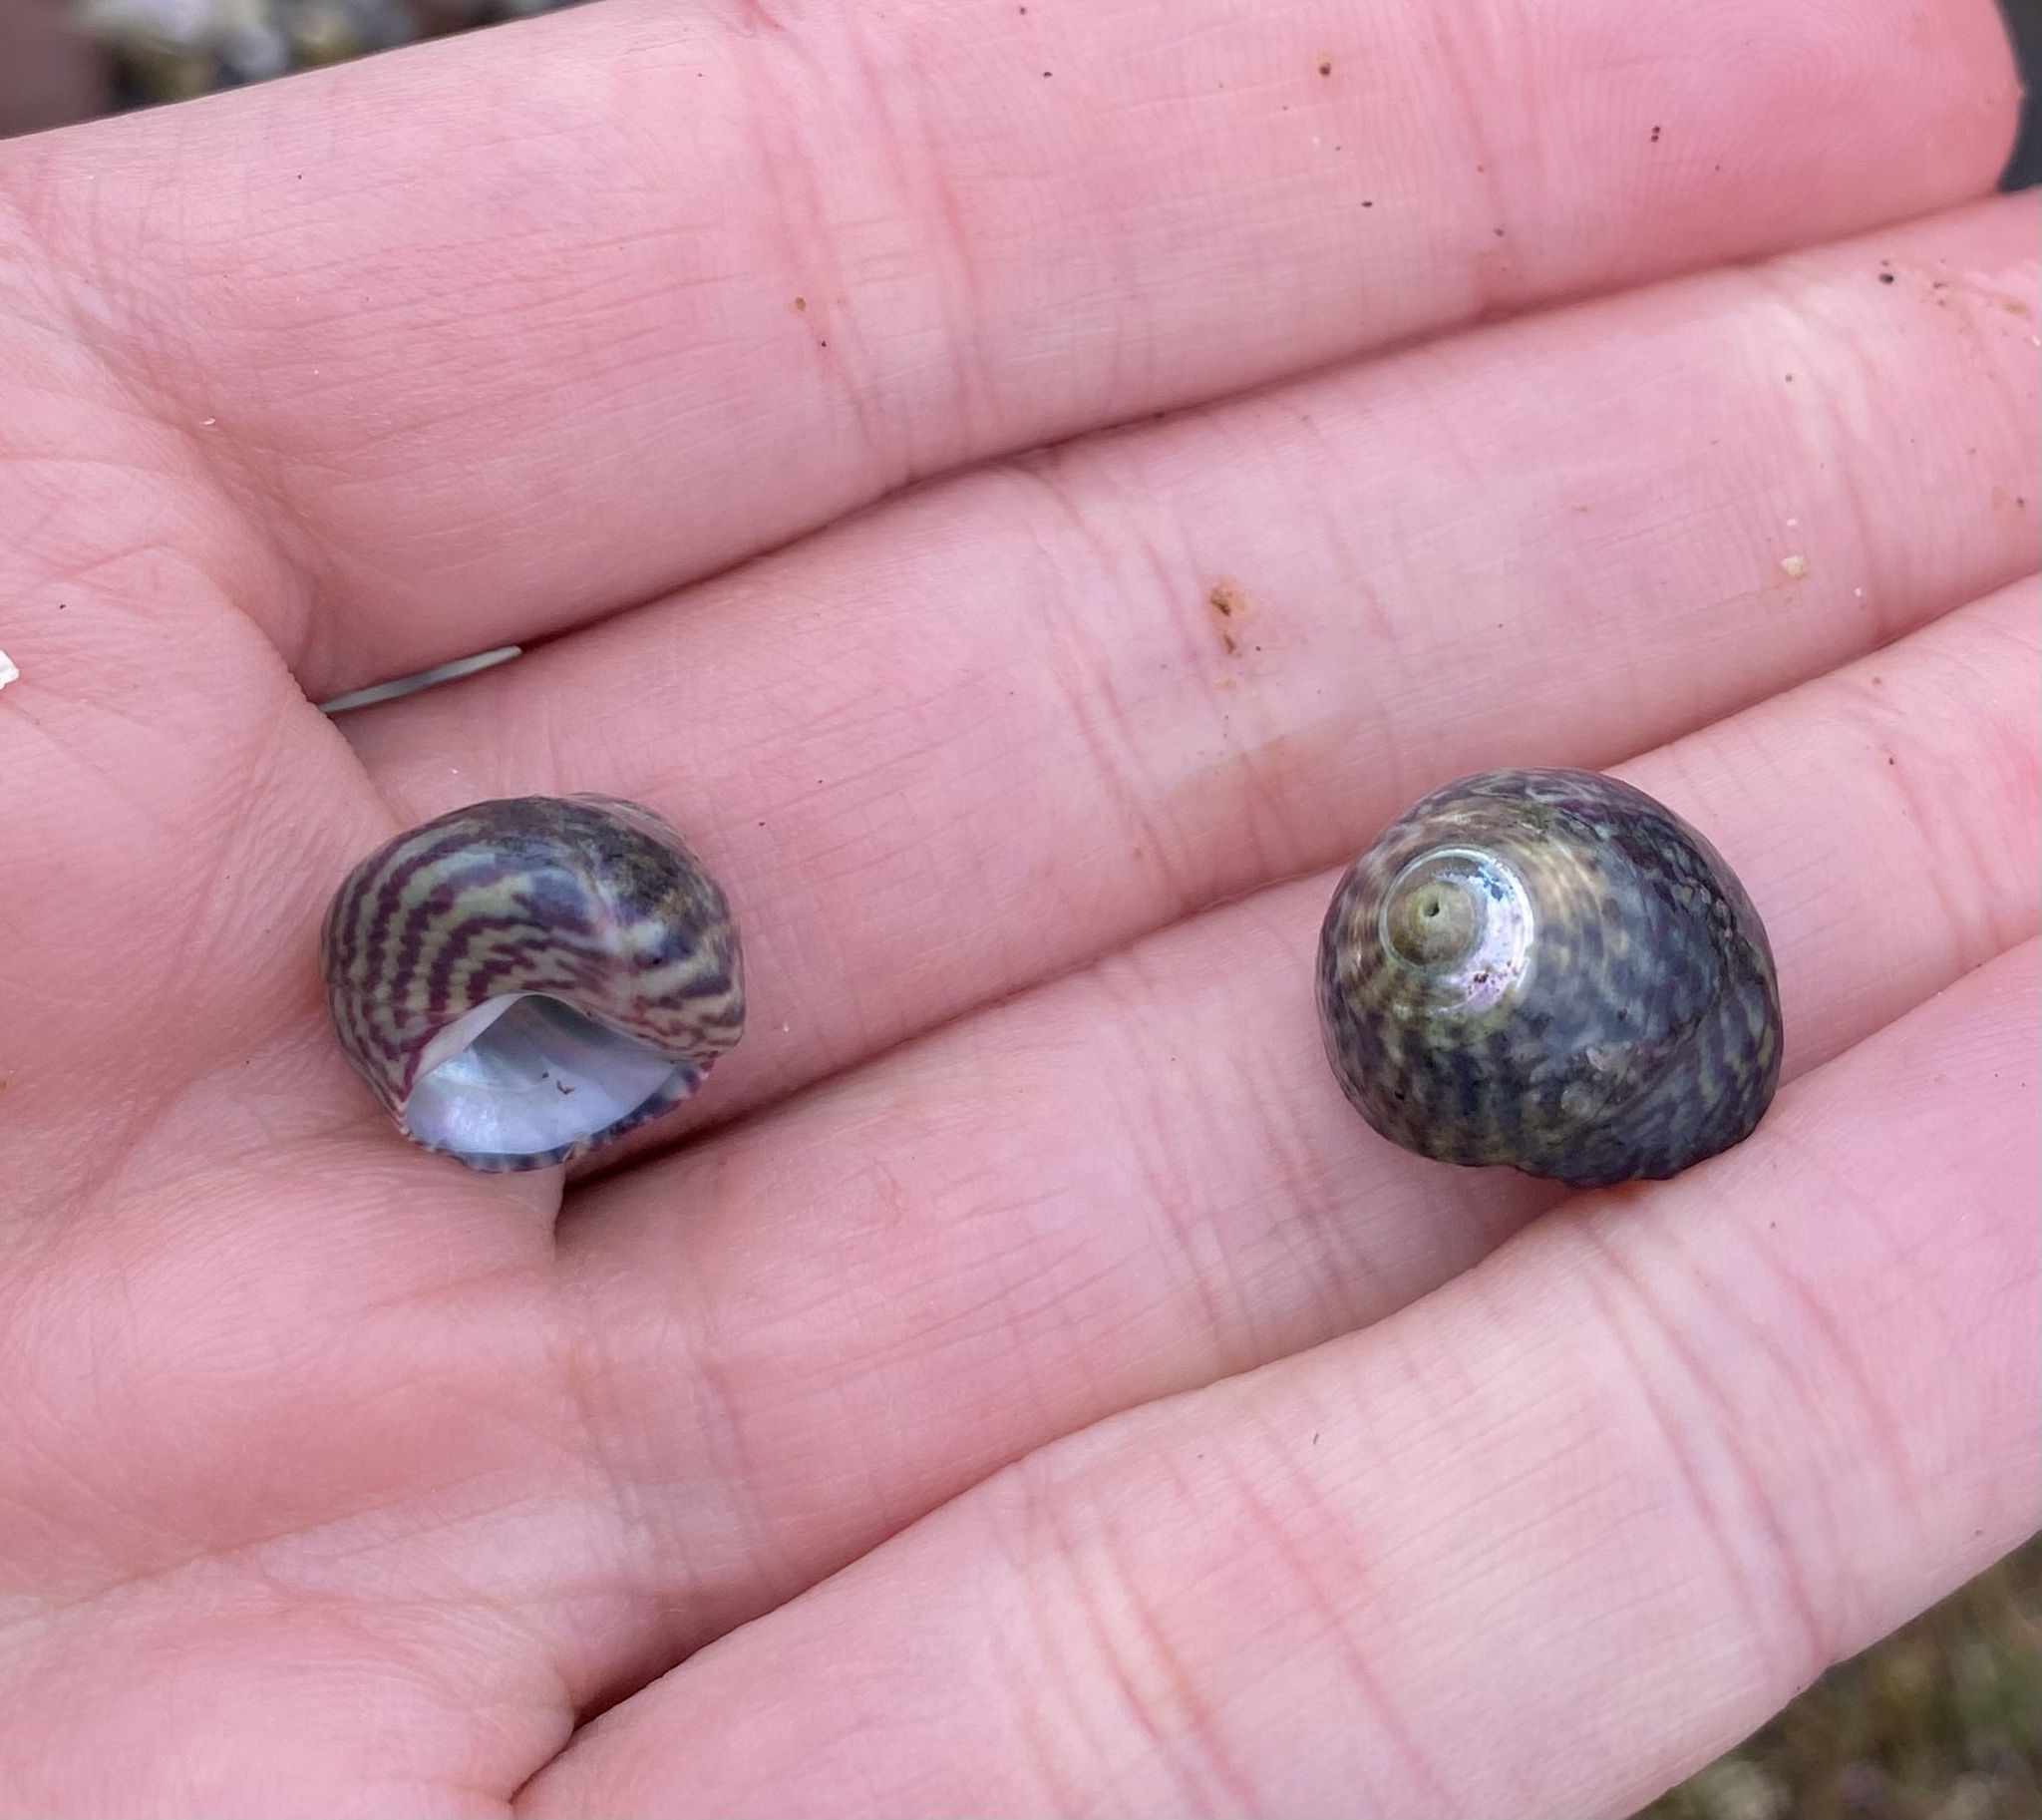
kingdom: Animalia
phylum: Mollusca
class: Gastropoda
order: Trochida
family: Trochidae
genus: Steromphala
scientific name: Steromphala umbilicalis
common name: Flat top shell
